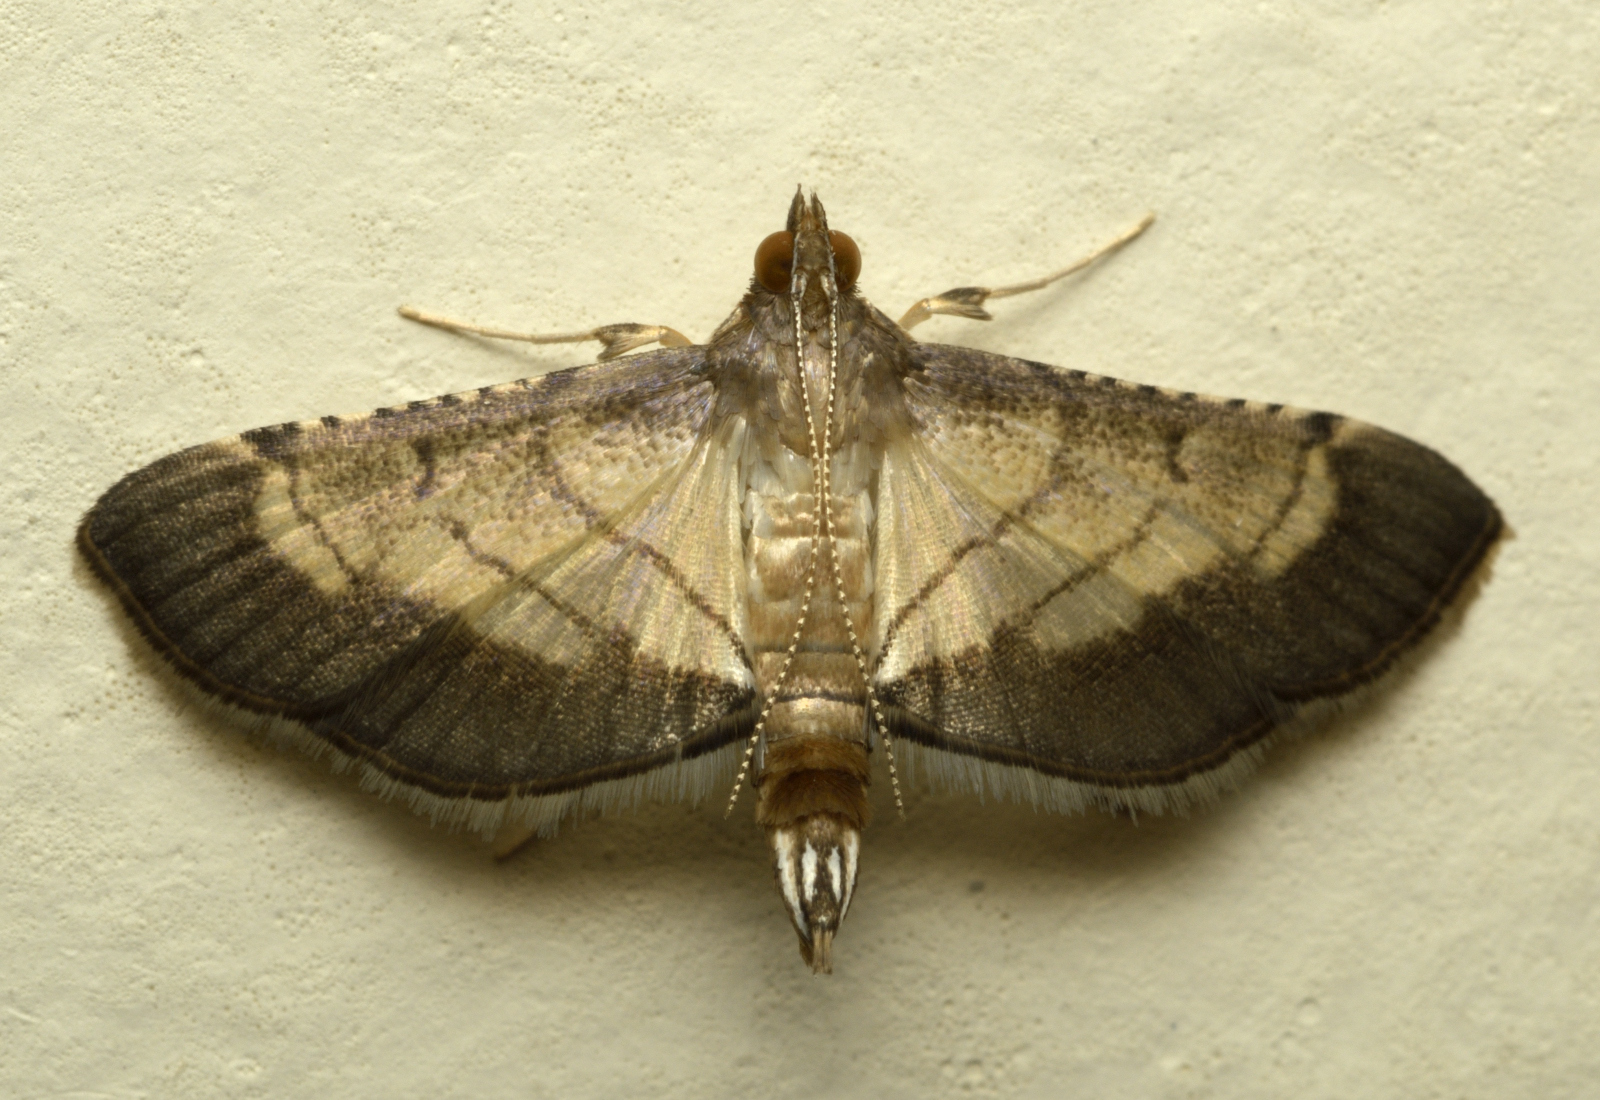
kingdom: Animalia
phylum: Arthropoda
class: Insecta
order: Lepidoptera
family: Crambidae
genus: Cnaphalocrocis
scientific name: Cnaphalocrocis trebiusalis
